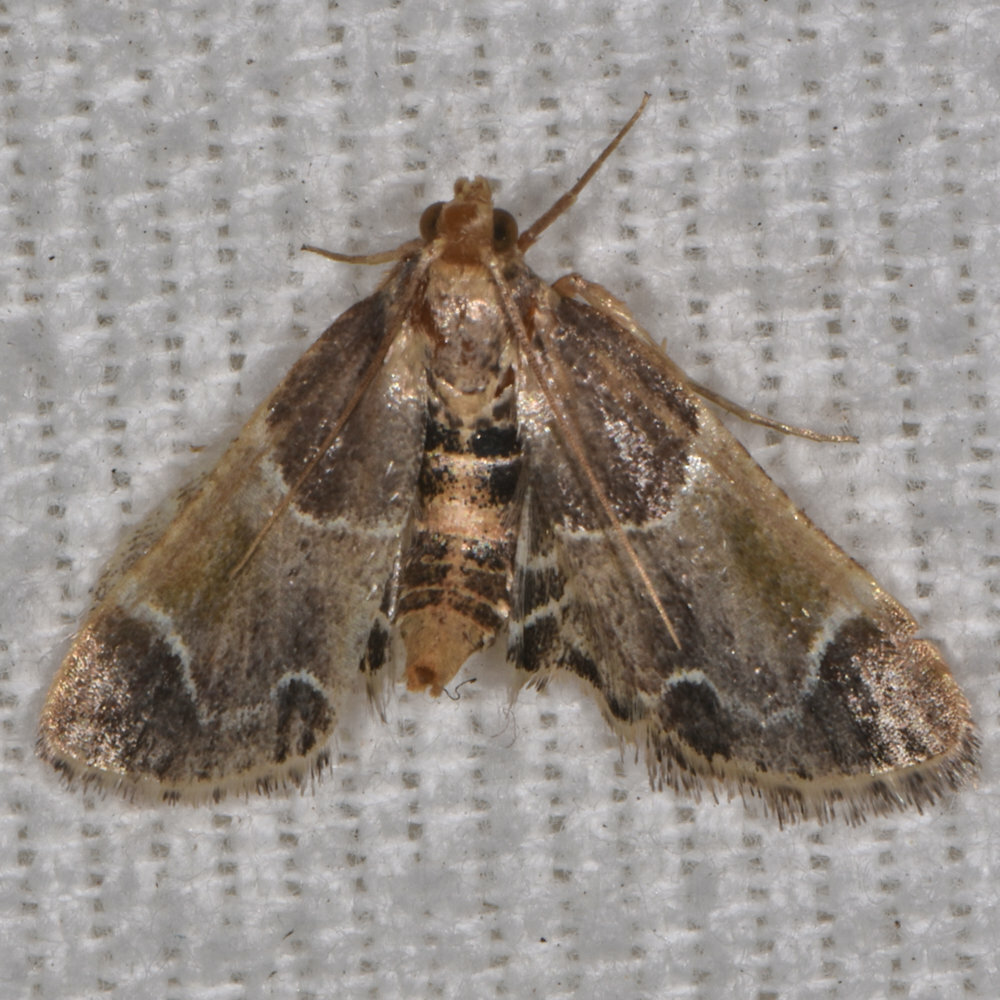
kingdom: Animalia
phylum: Arthropoda
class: Insecta
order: Lepidoptera
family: Pyralidae
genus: Pyralis
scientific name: Pyralis farinalis
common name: Meal moth
